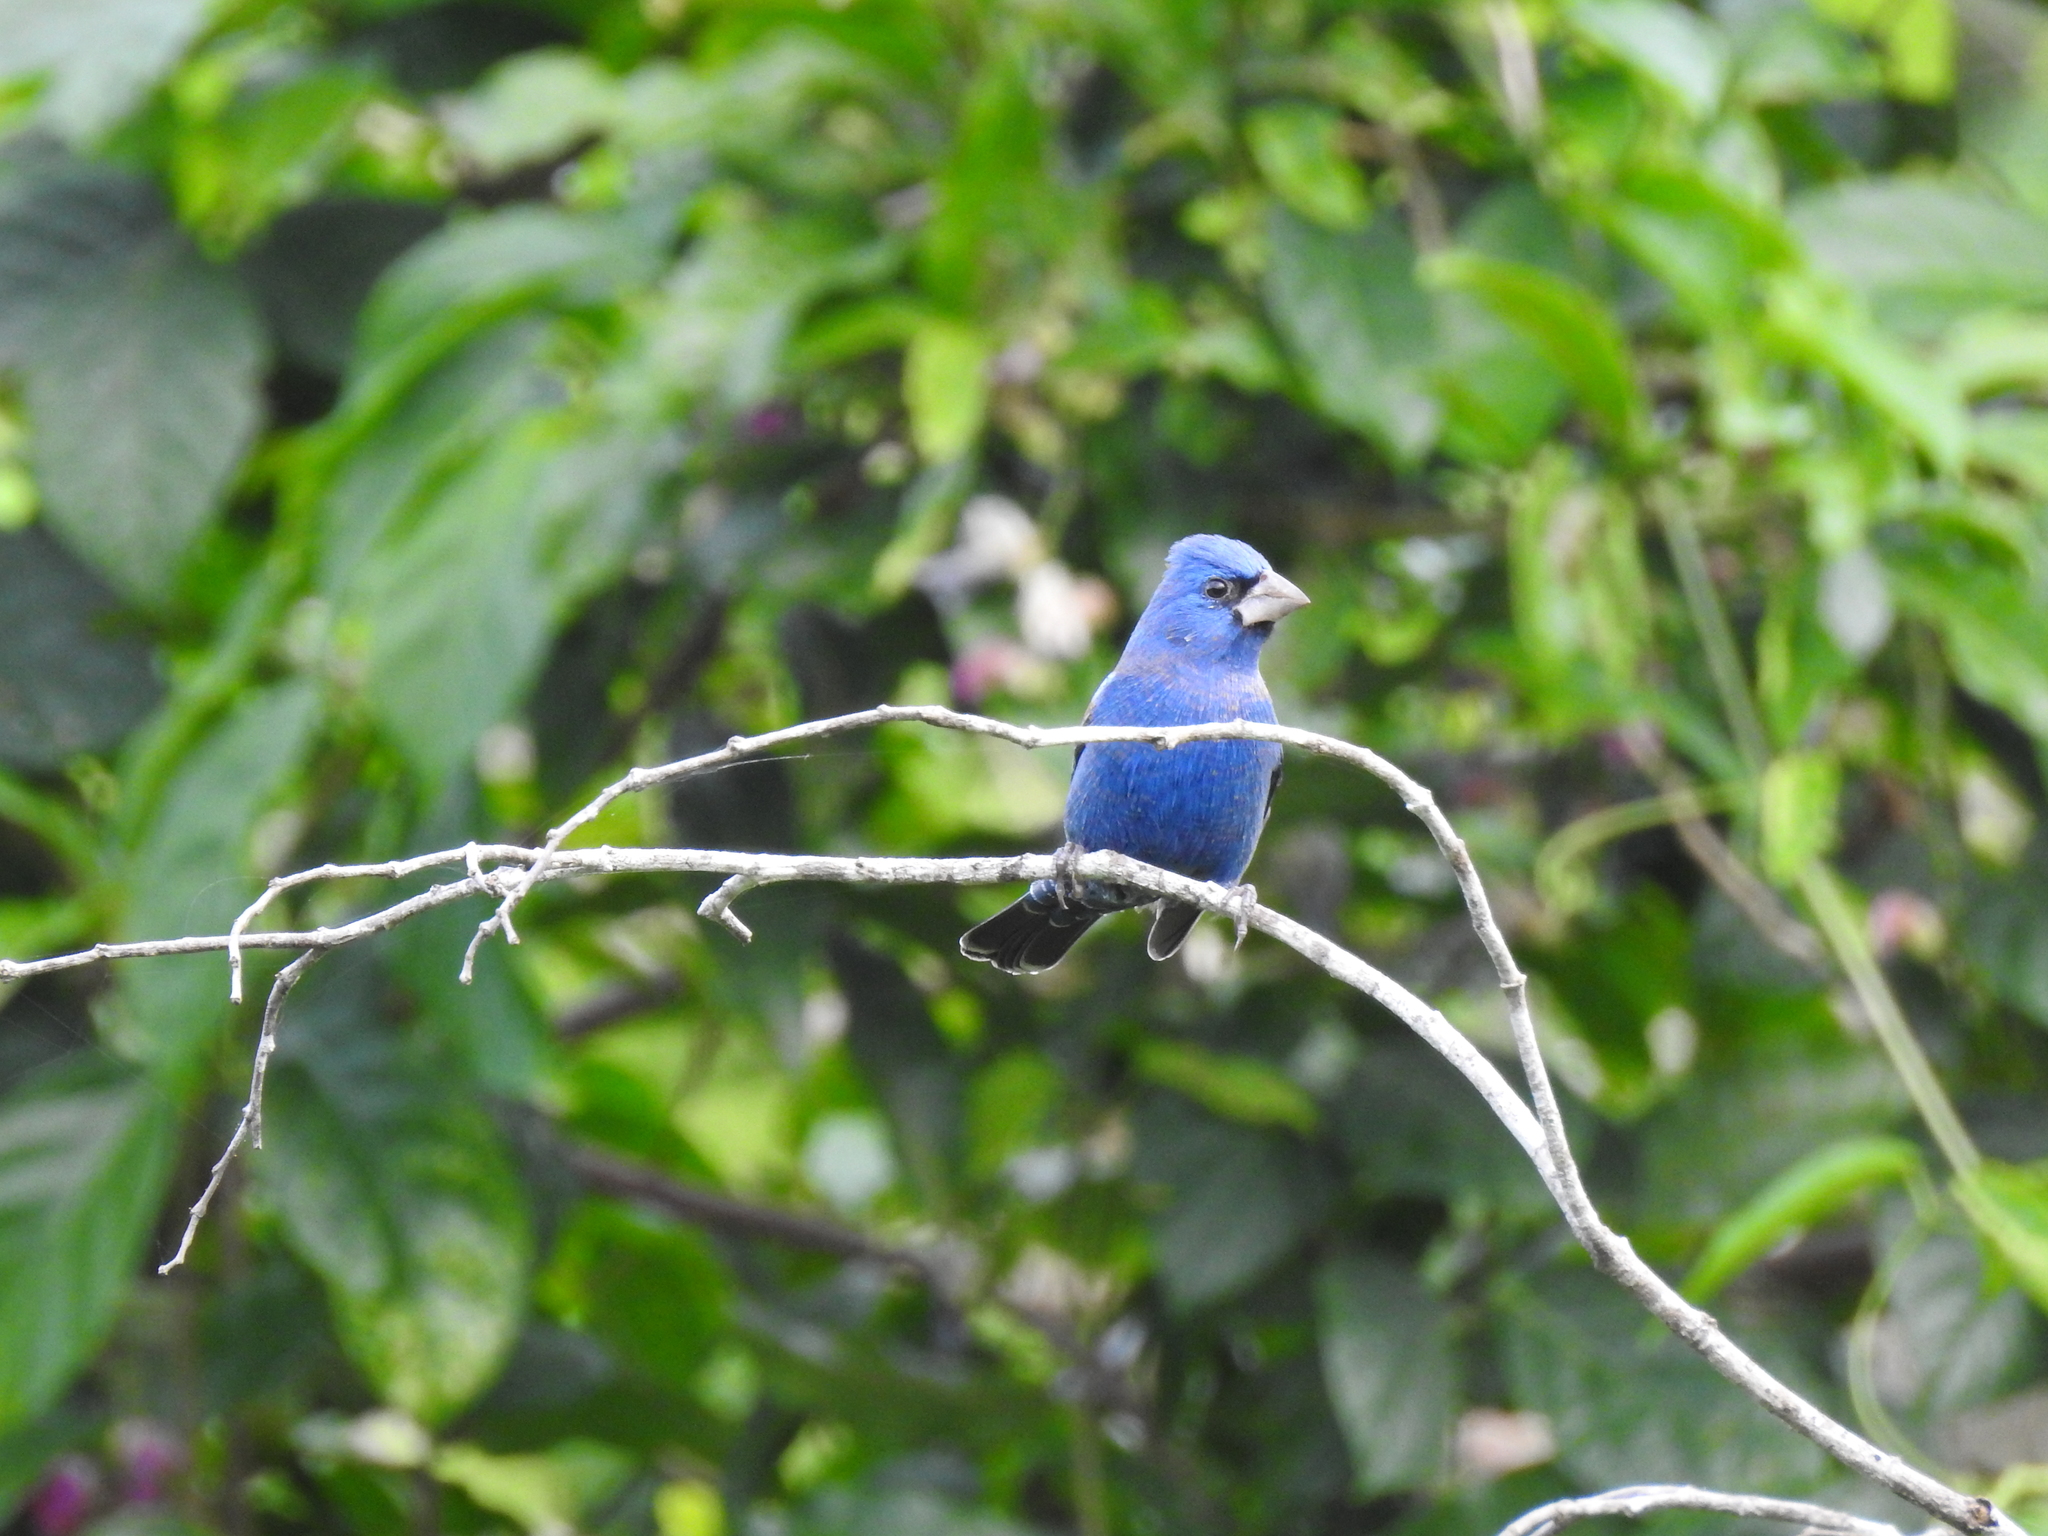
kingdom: Animalia
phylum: Chordata
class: Aves
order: Passeriformes
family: Cardinalidae
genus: Passerina
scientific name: Passerina caerulea
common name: Blue grosbeak
